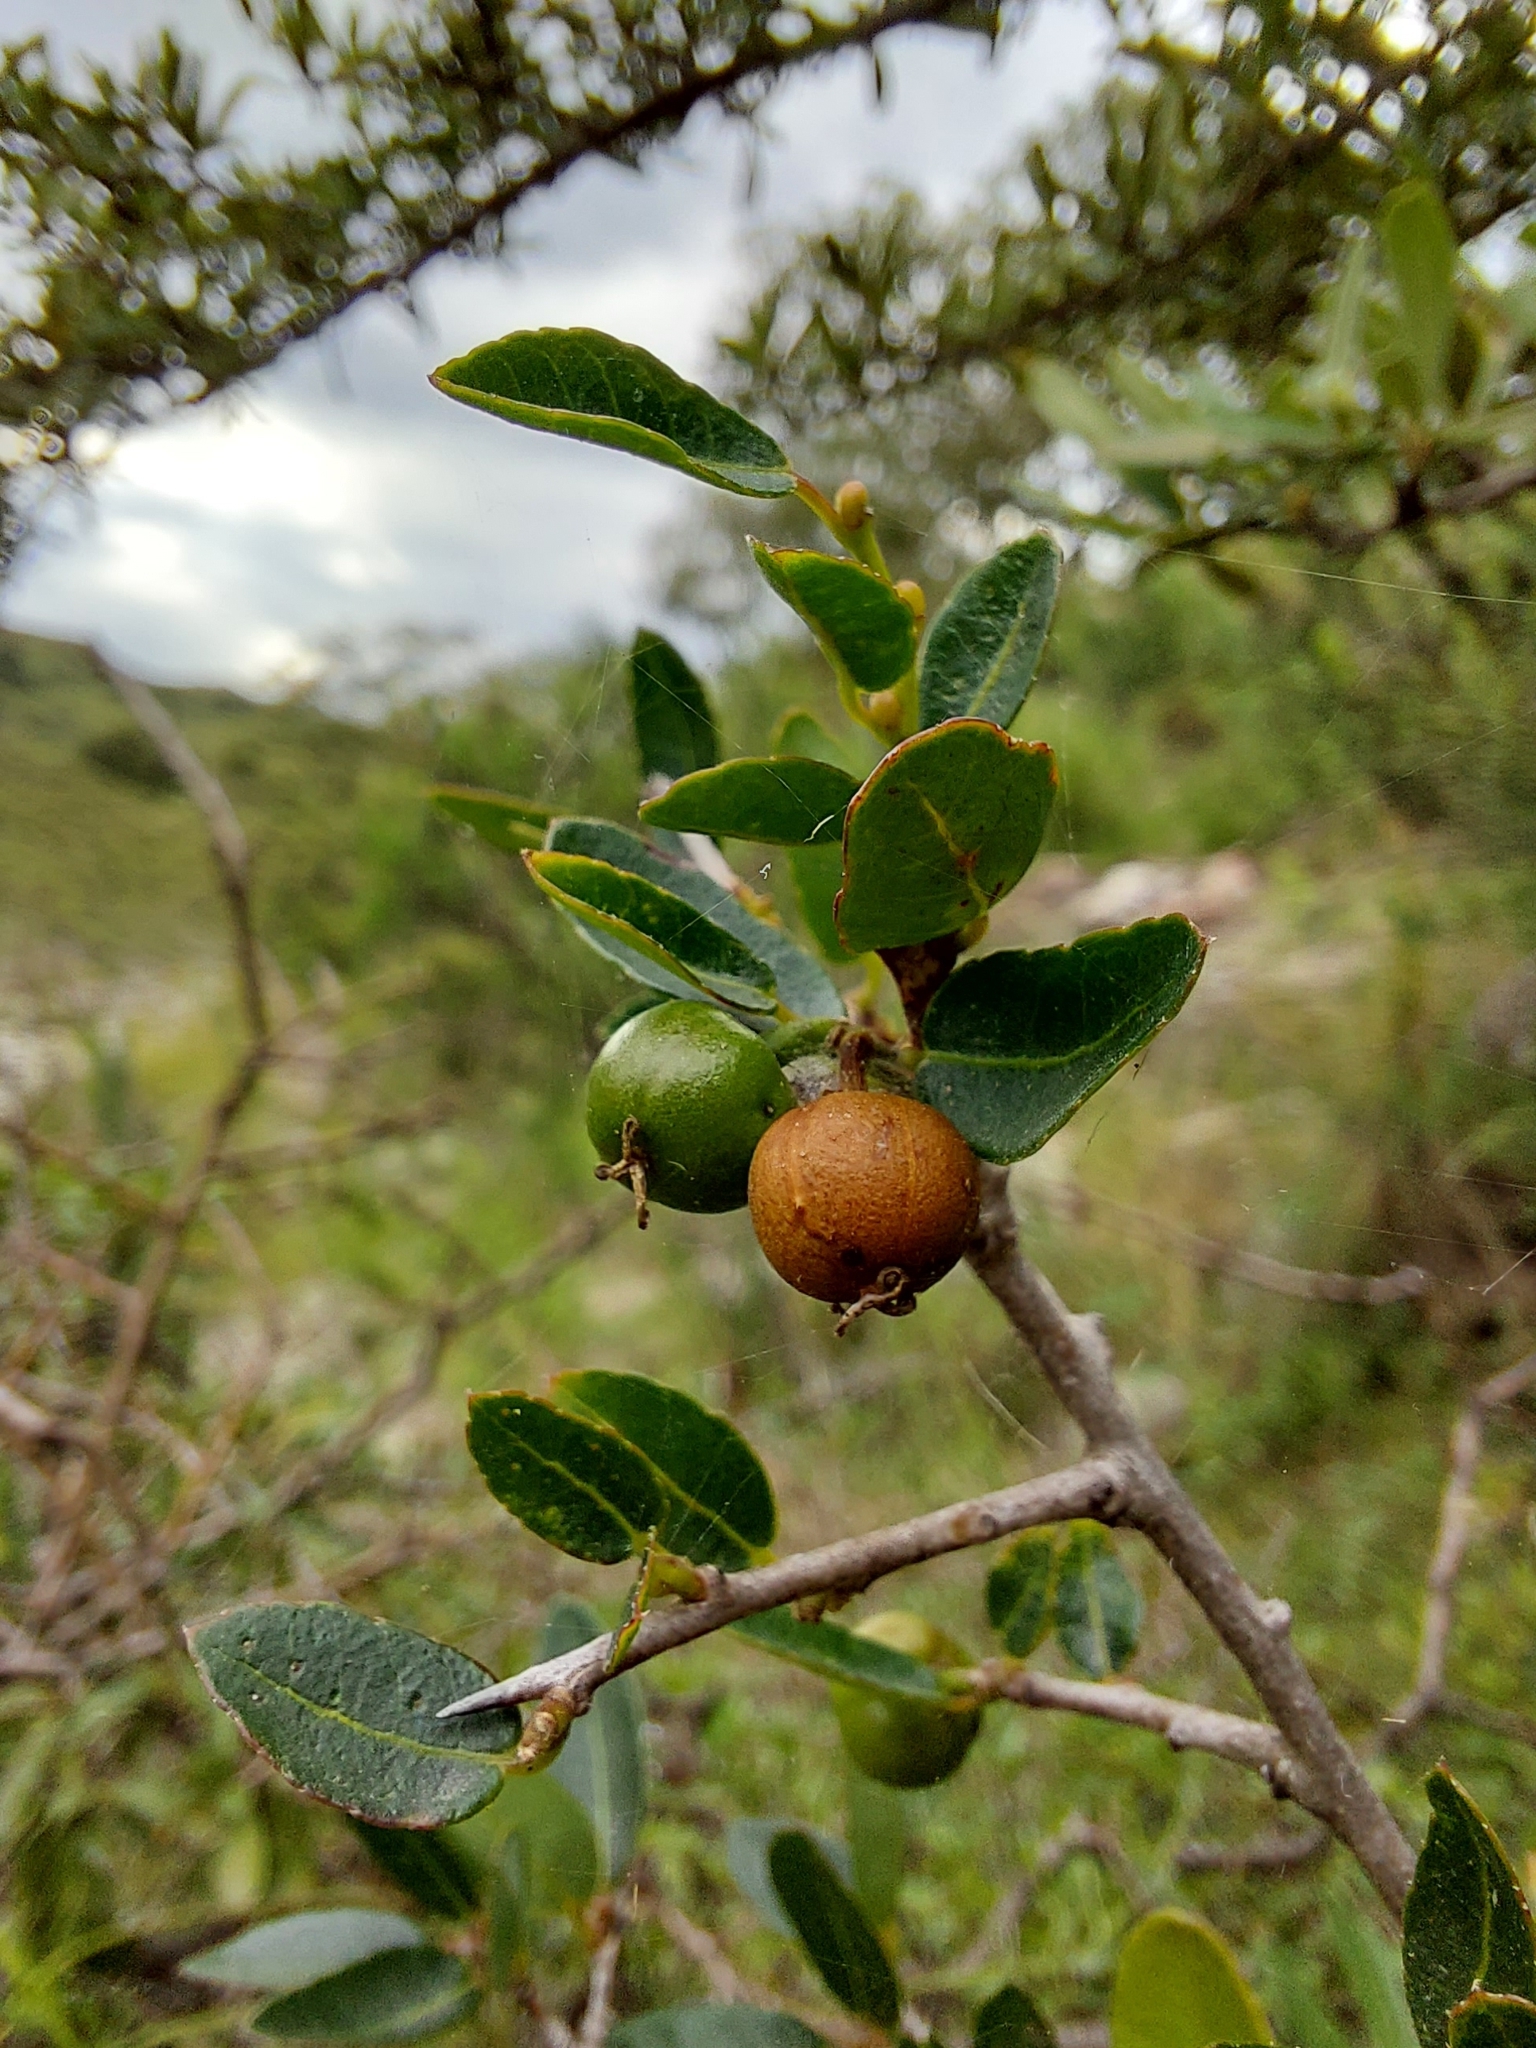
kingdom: Plantae
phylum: Tracheophyta
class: Magnoliopsida
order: Malpighiales
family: Euphorbiaceae
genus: Sebastiania
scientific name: Sebastiania klotzschiana
